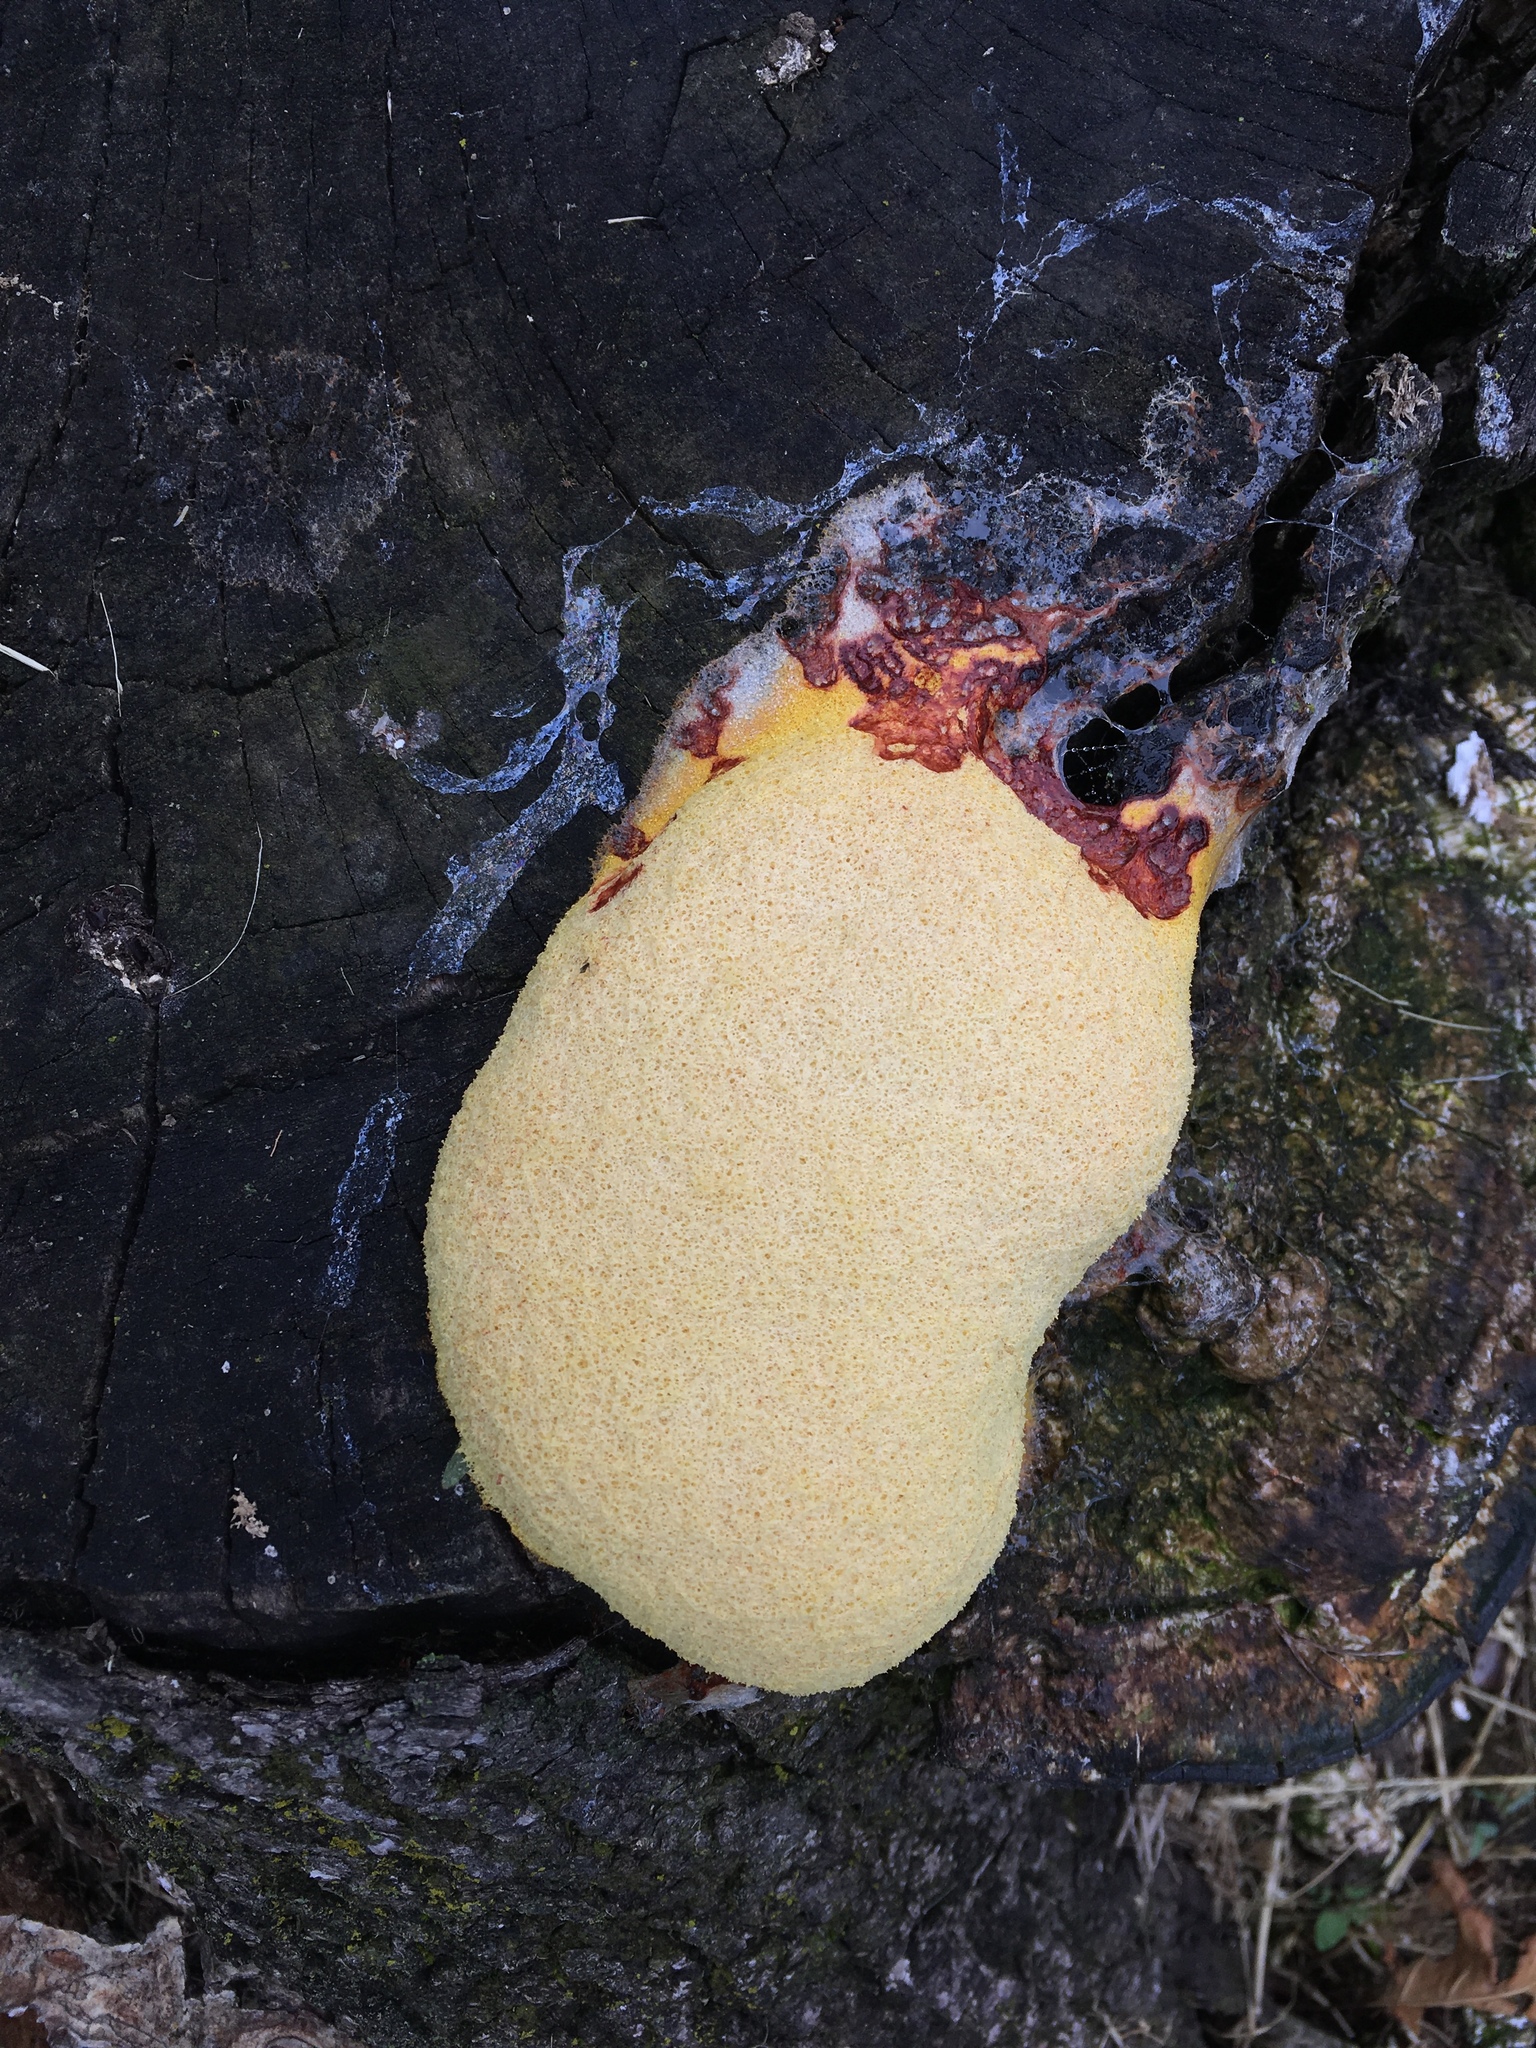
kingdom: Protozoa
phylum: Mycetozoa
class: Myxomycetes
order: Physarales
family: Physaraceae
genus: Fuligo
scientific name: Fuligo septica
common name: Dog vomit slime mold
